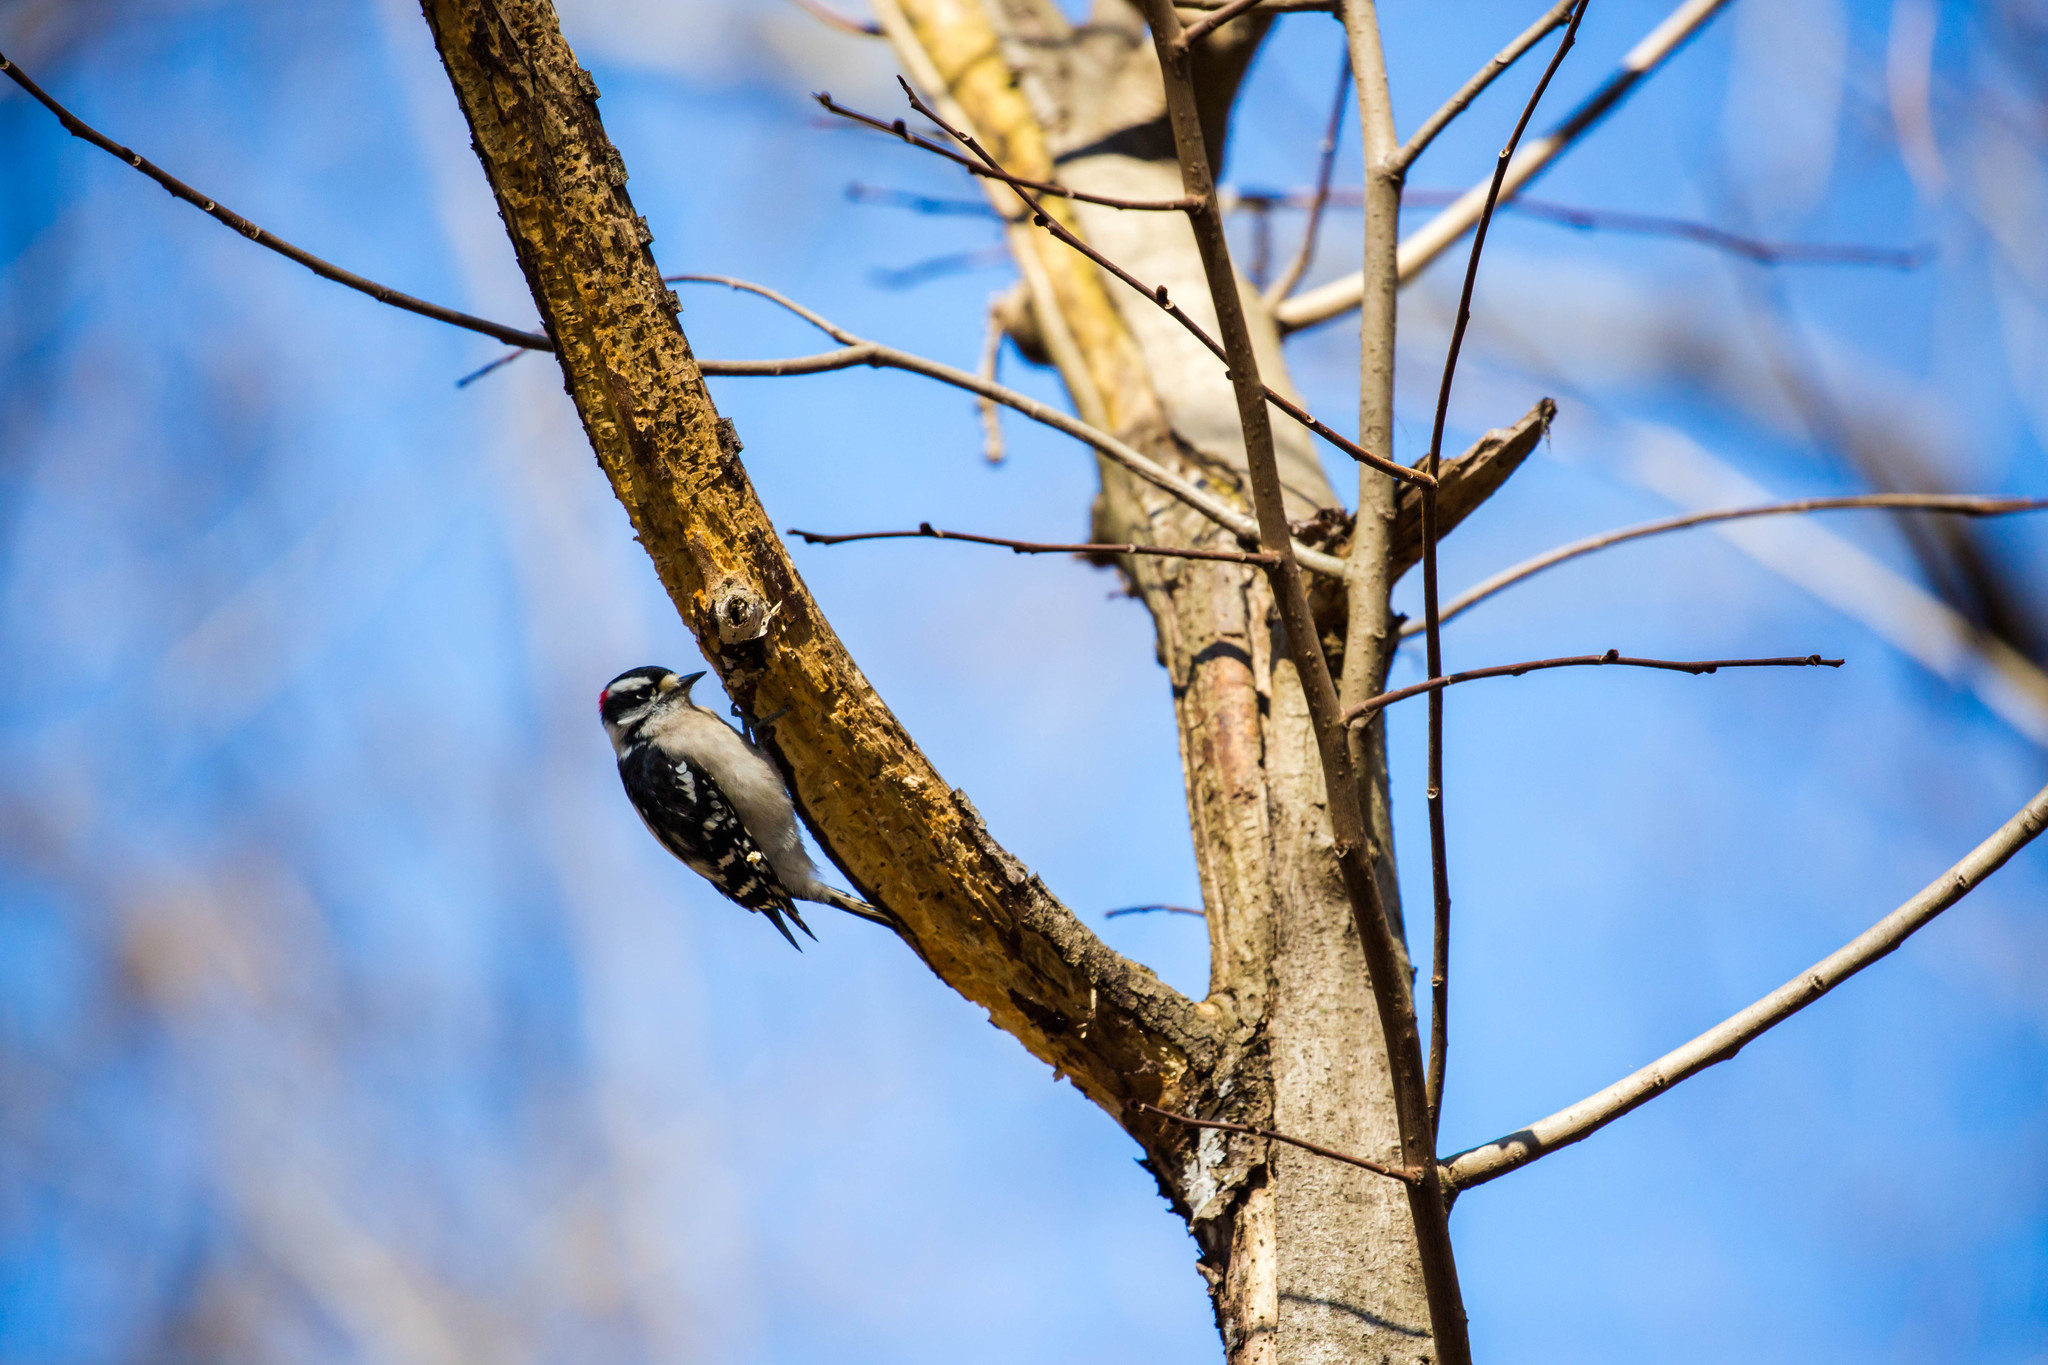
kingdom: Animalia
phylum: Chordata
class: Aves
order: Piciformes
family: Picidae
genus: Dryobates
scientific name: Dryobates pubescens
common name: Downy woodpecker
